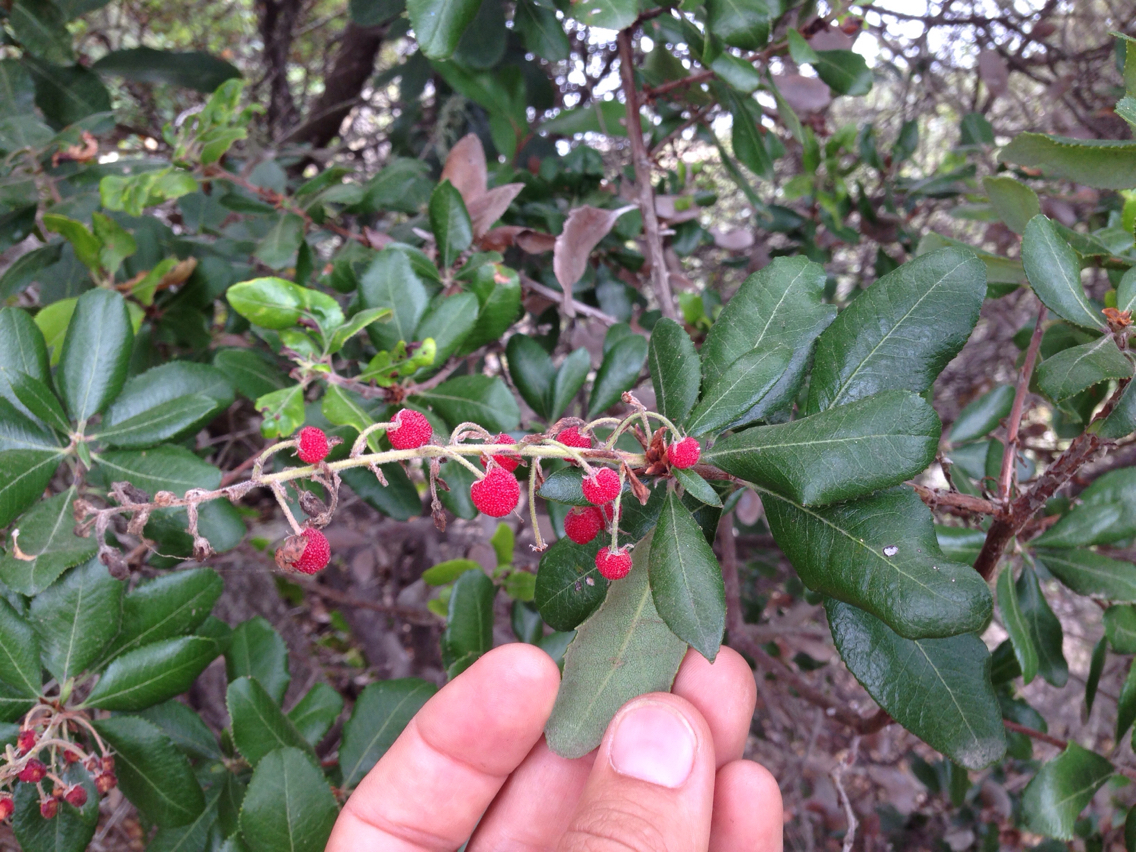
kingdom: Plantae
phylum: Tracheophyta
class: Magnoliopsida
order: Ericales
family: Ericaceae
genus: Comarostaphylis
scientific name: Comarostaphylis diversifolia
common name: Summer-holly
